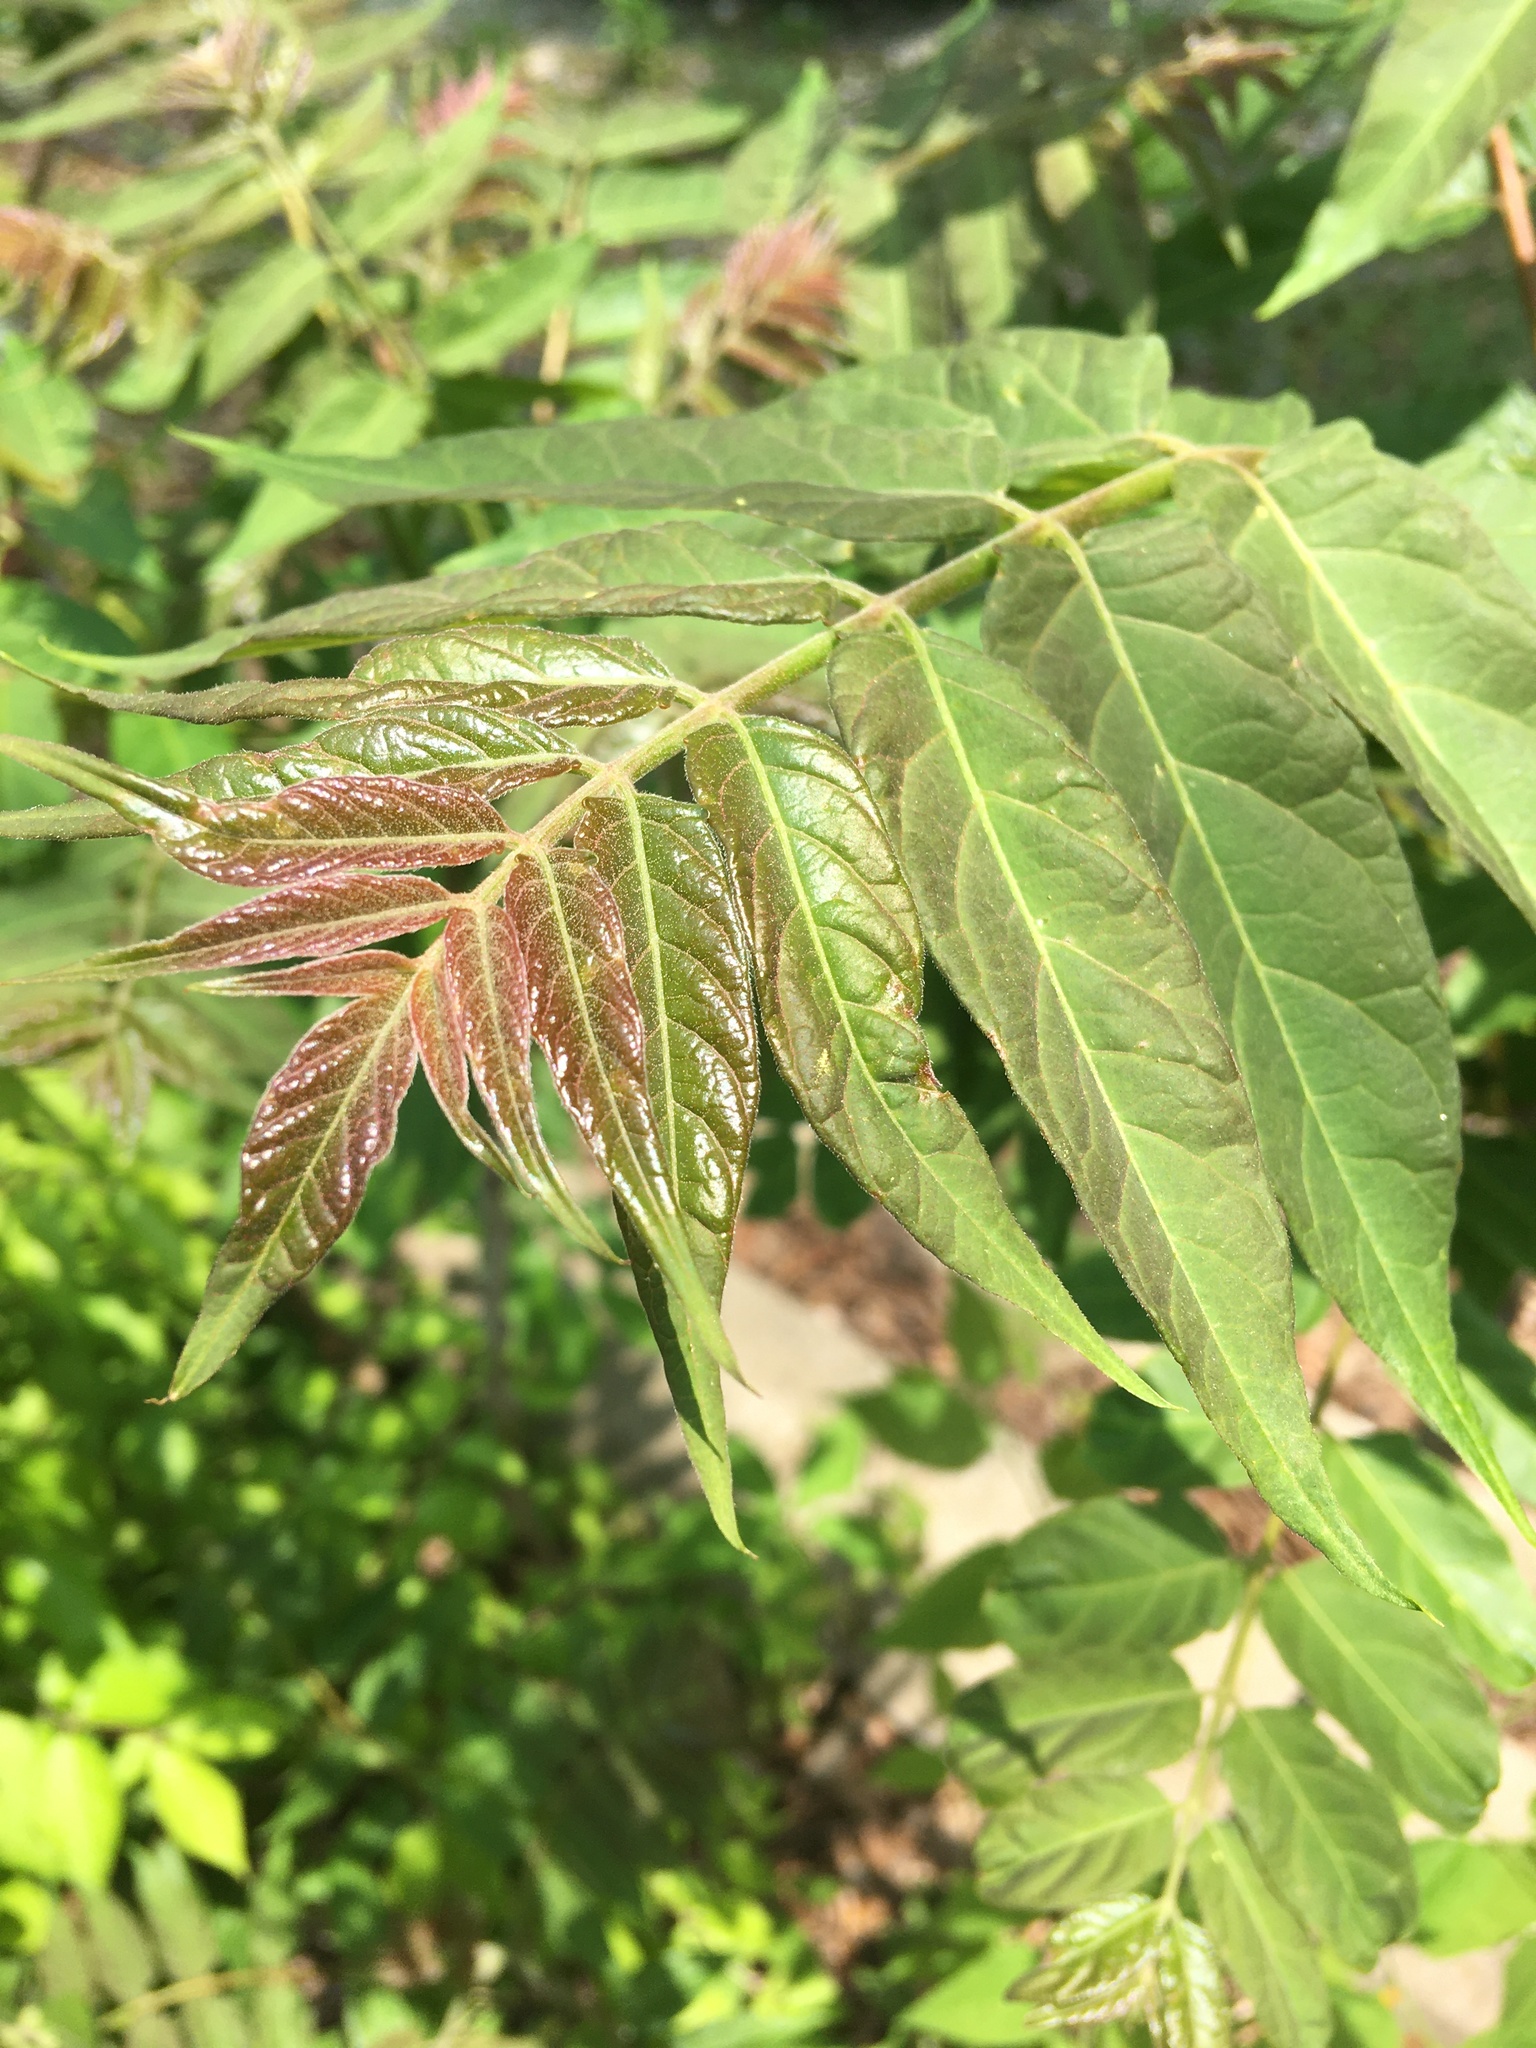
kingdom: Plantae
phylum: Tracheophyta
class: Magnoliopsida
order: Sapindales
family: Simaroubaceae
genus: Ailanthus
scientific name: Ailanthus altissima
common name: Tree-of-heaven
